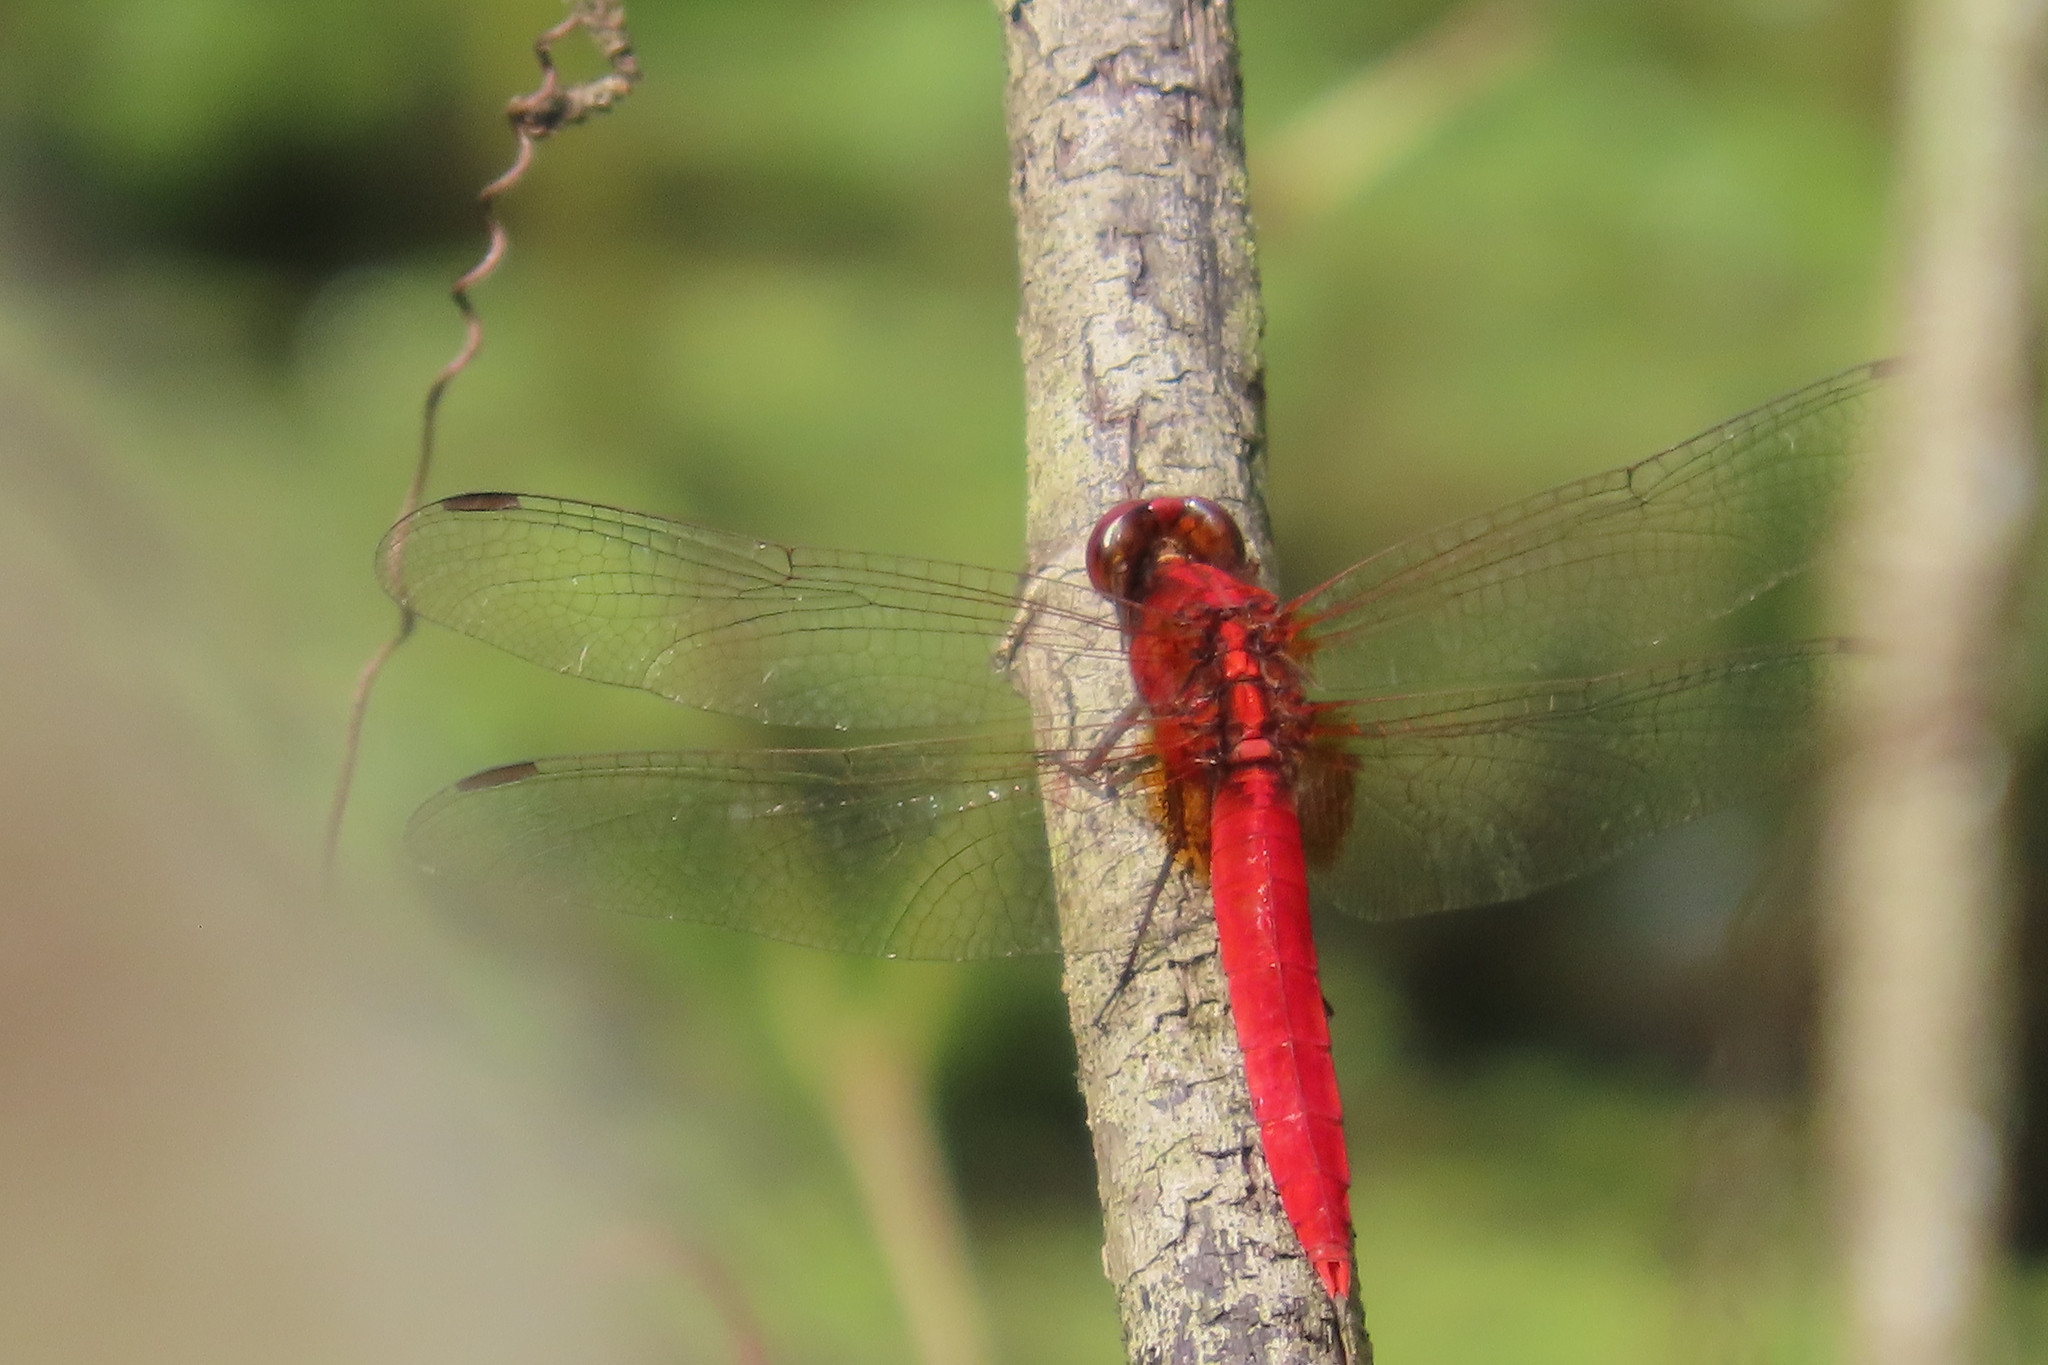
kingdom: Animalia
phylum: Arthropoda
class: Insecta
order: Odonata
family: Libellulidae
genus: Rhodothemis
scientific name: Rhodothemis rufa
